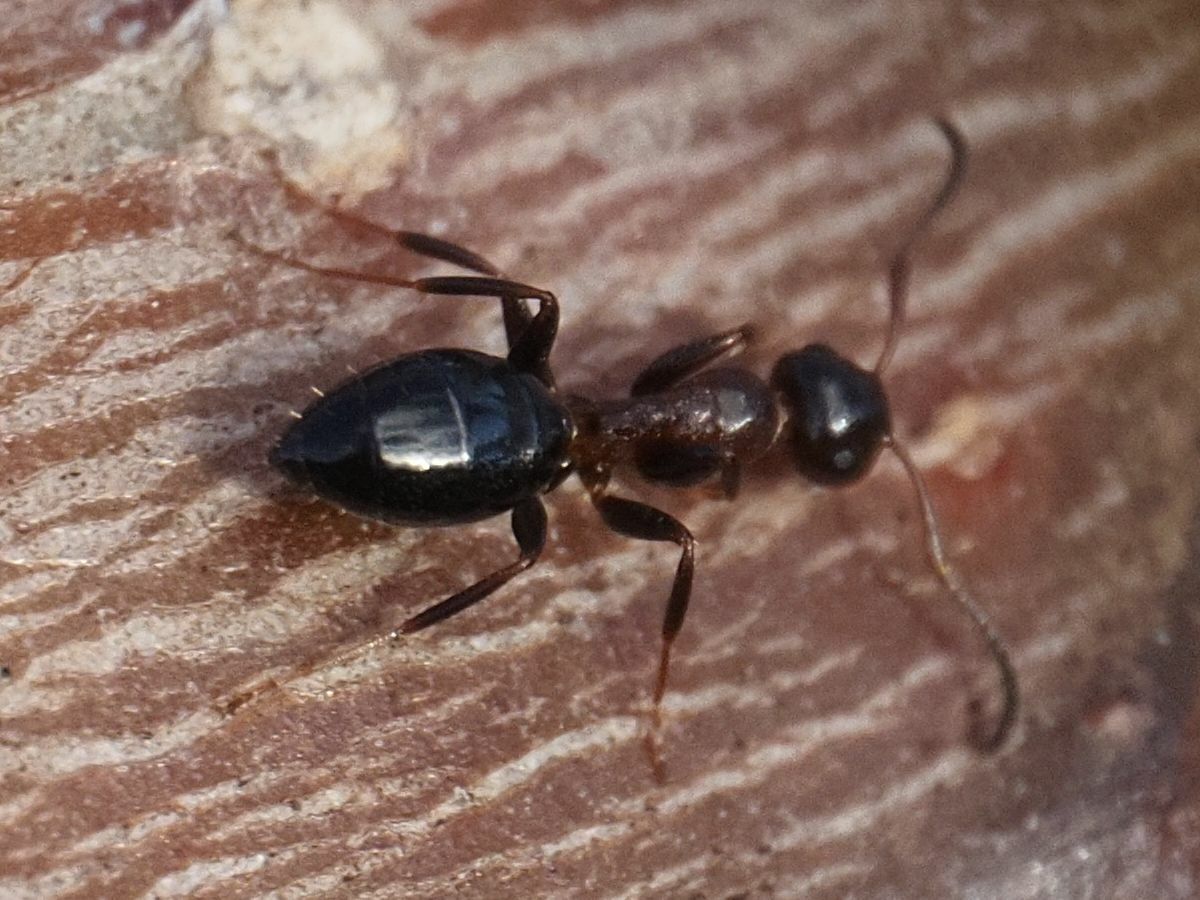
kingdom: Animalia
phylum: Arthropoda
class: Insecta
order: Hymenoptera
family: Formicidae
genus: Camponotus
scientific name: Camponotus truncatus
